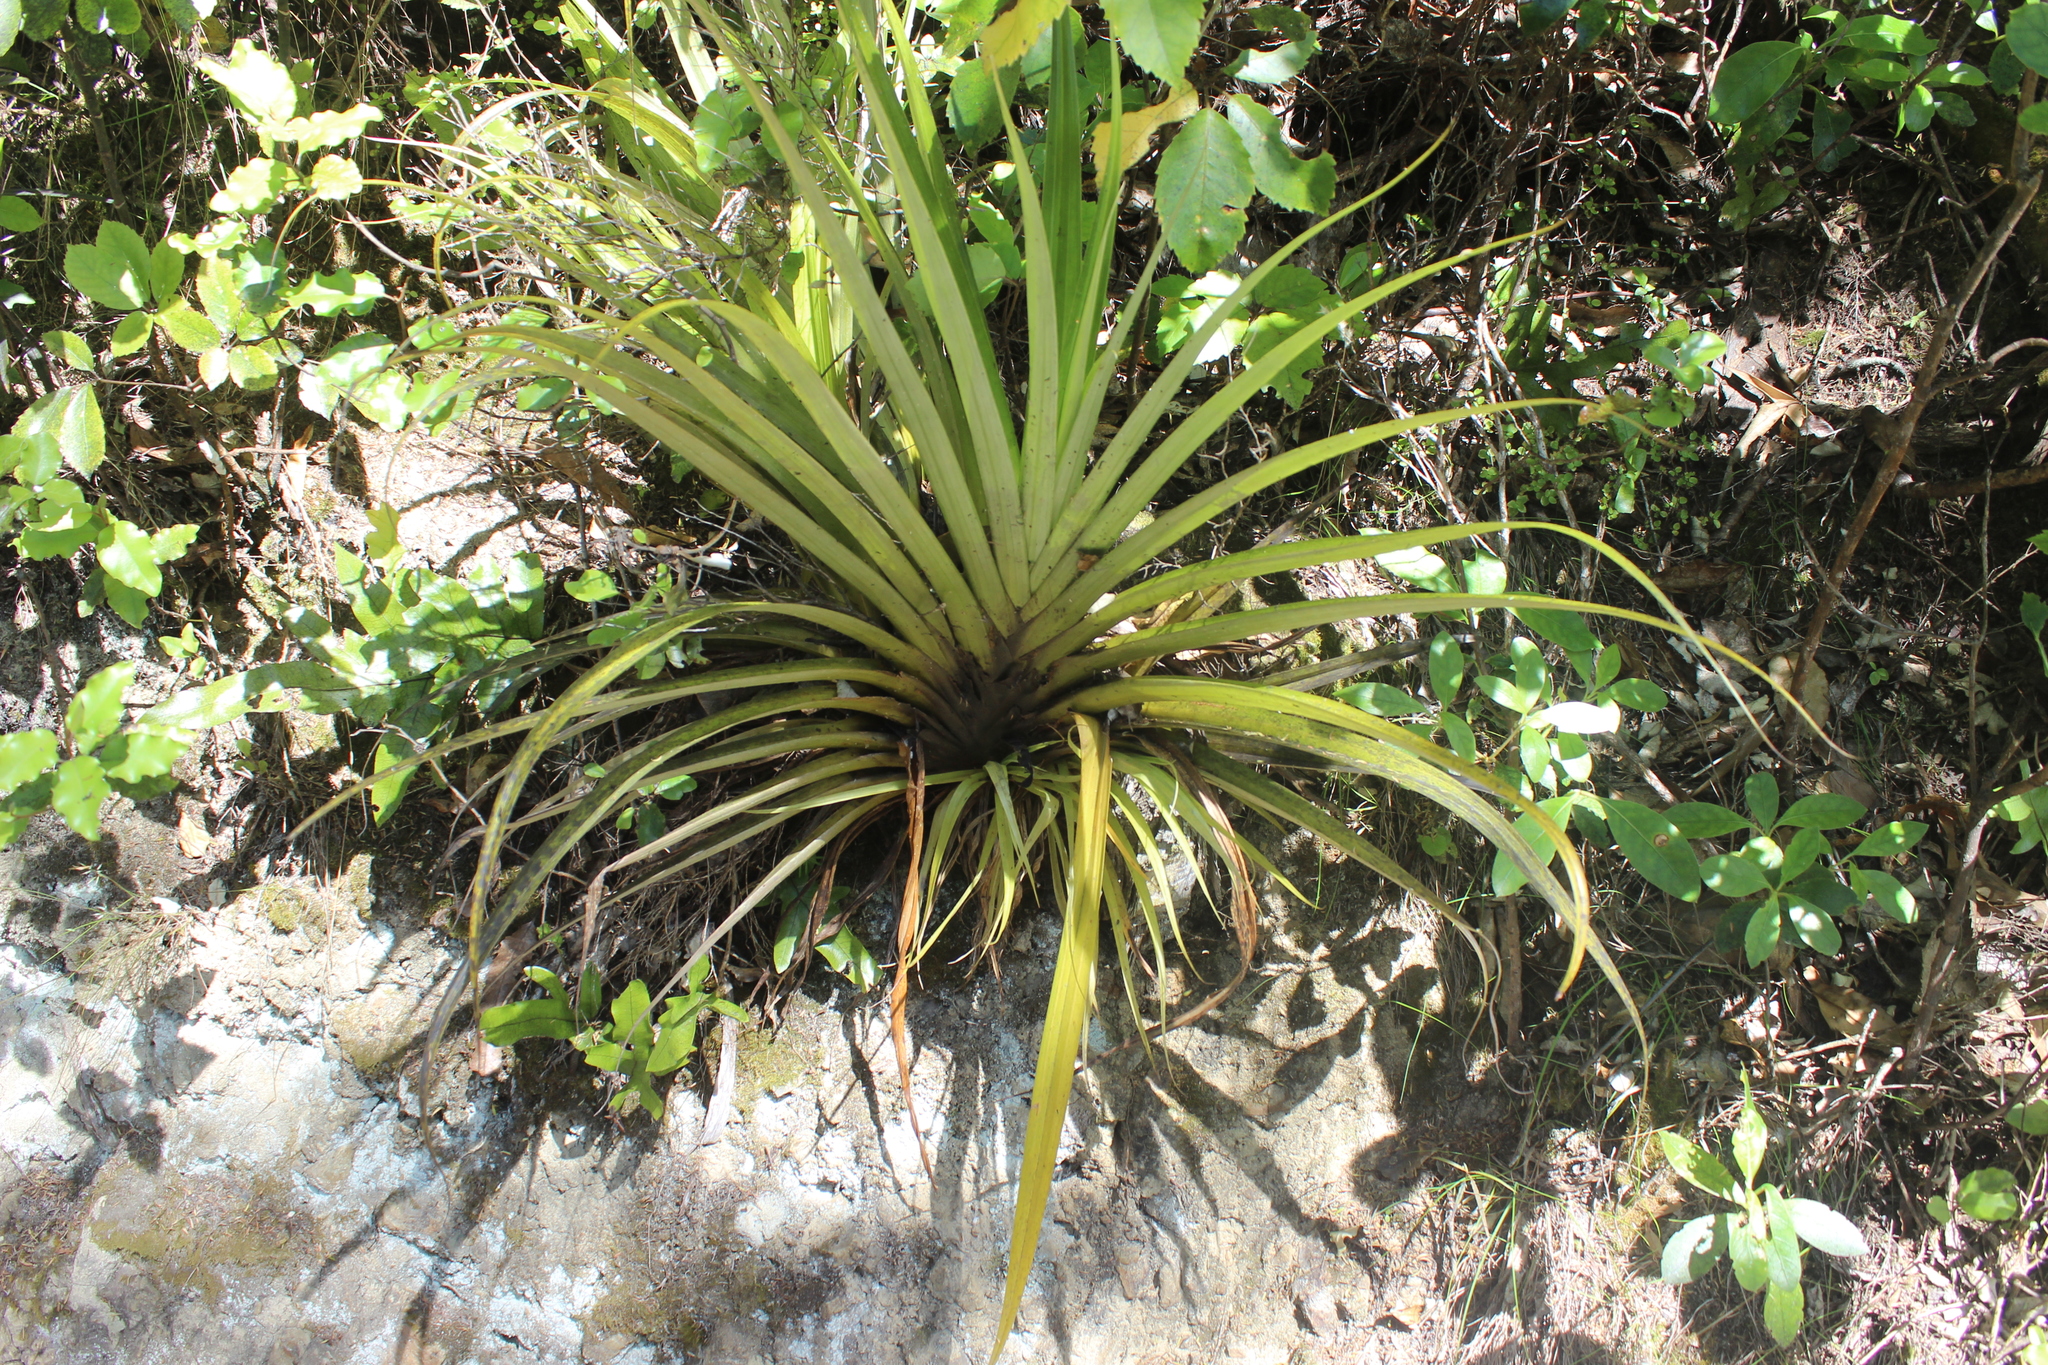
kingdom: Plantae
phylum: Tracheophyta
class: Liliopsida
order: Asparagales
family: Asteliaceae
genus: Astelia
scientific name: Astelia hastata
